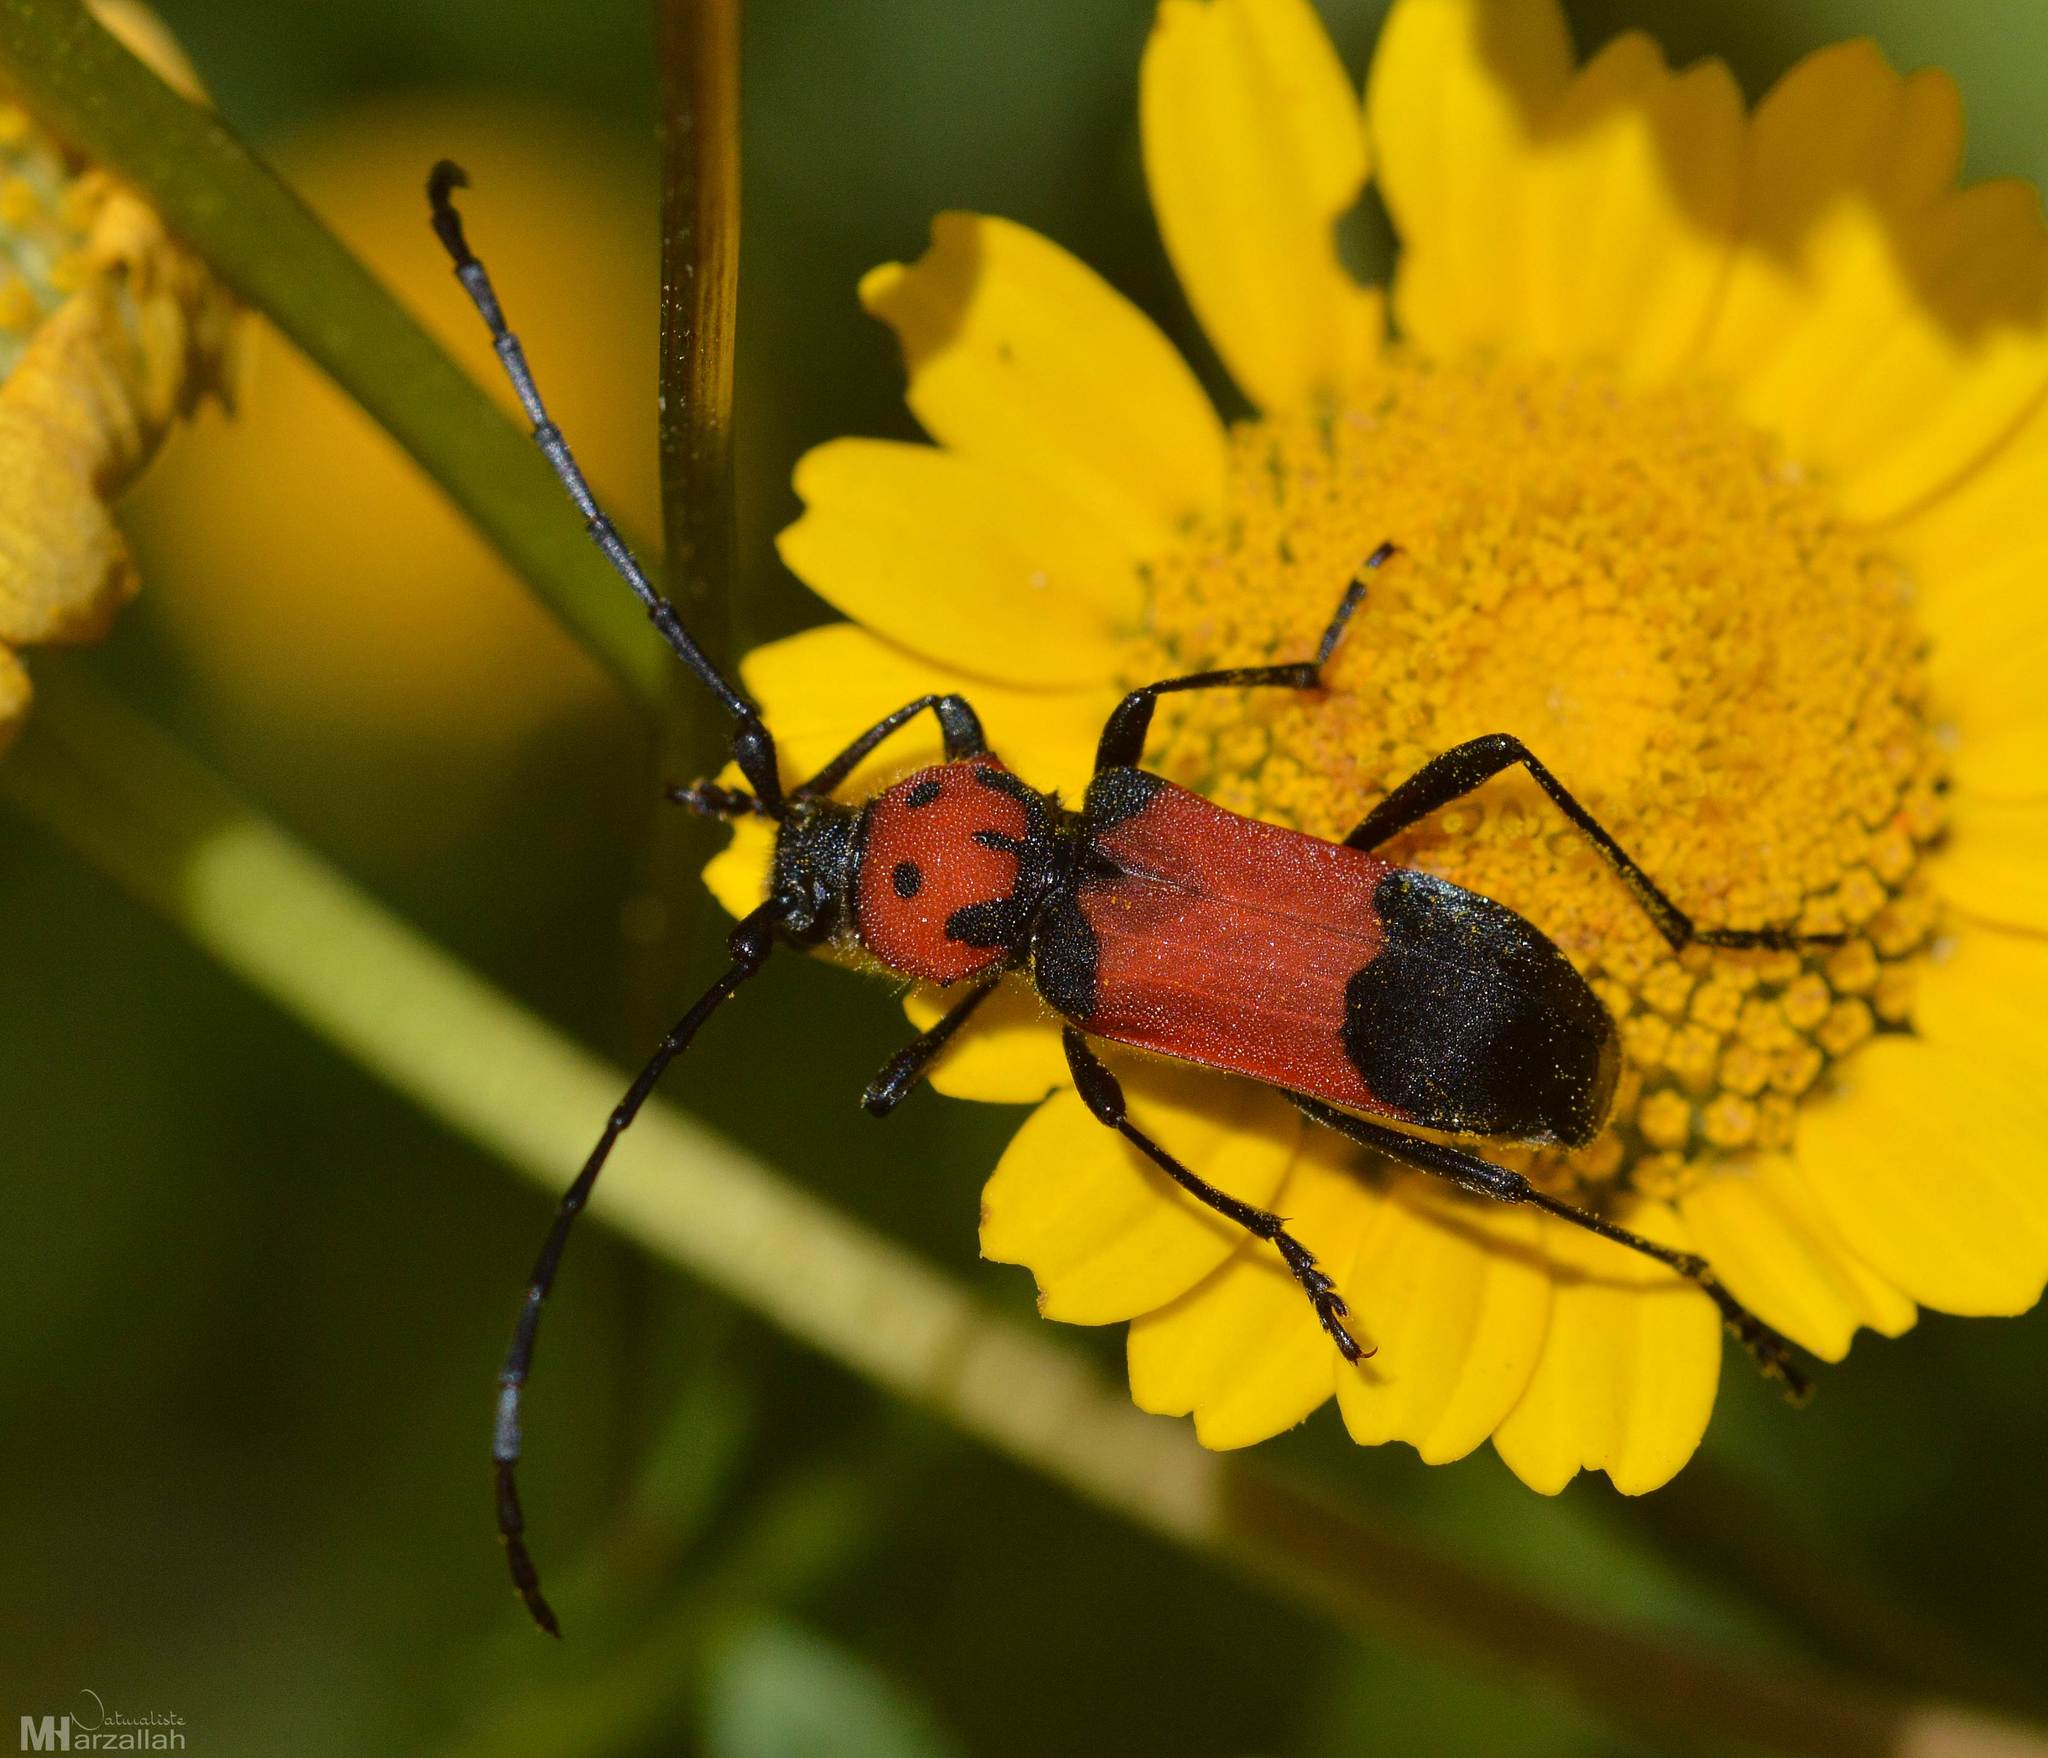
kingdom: Animalia
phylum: Arthropoda
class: Insecta
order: Coleoptera
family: Cerambycidae
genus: Purpuricenus
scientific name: Purpuricenus desfontainii
